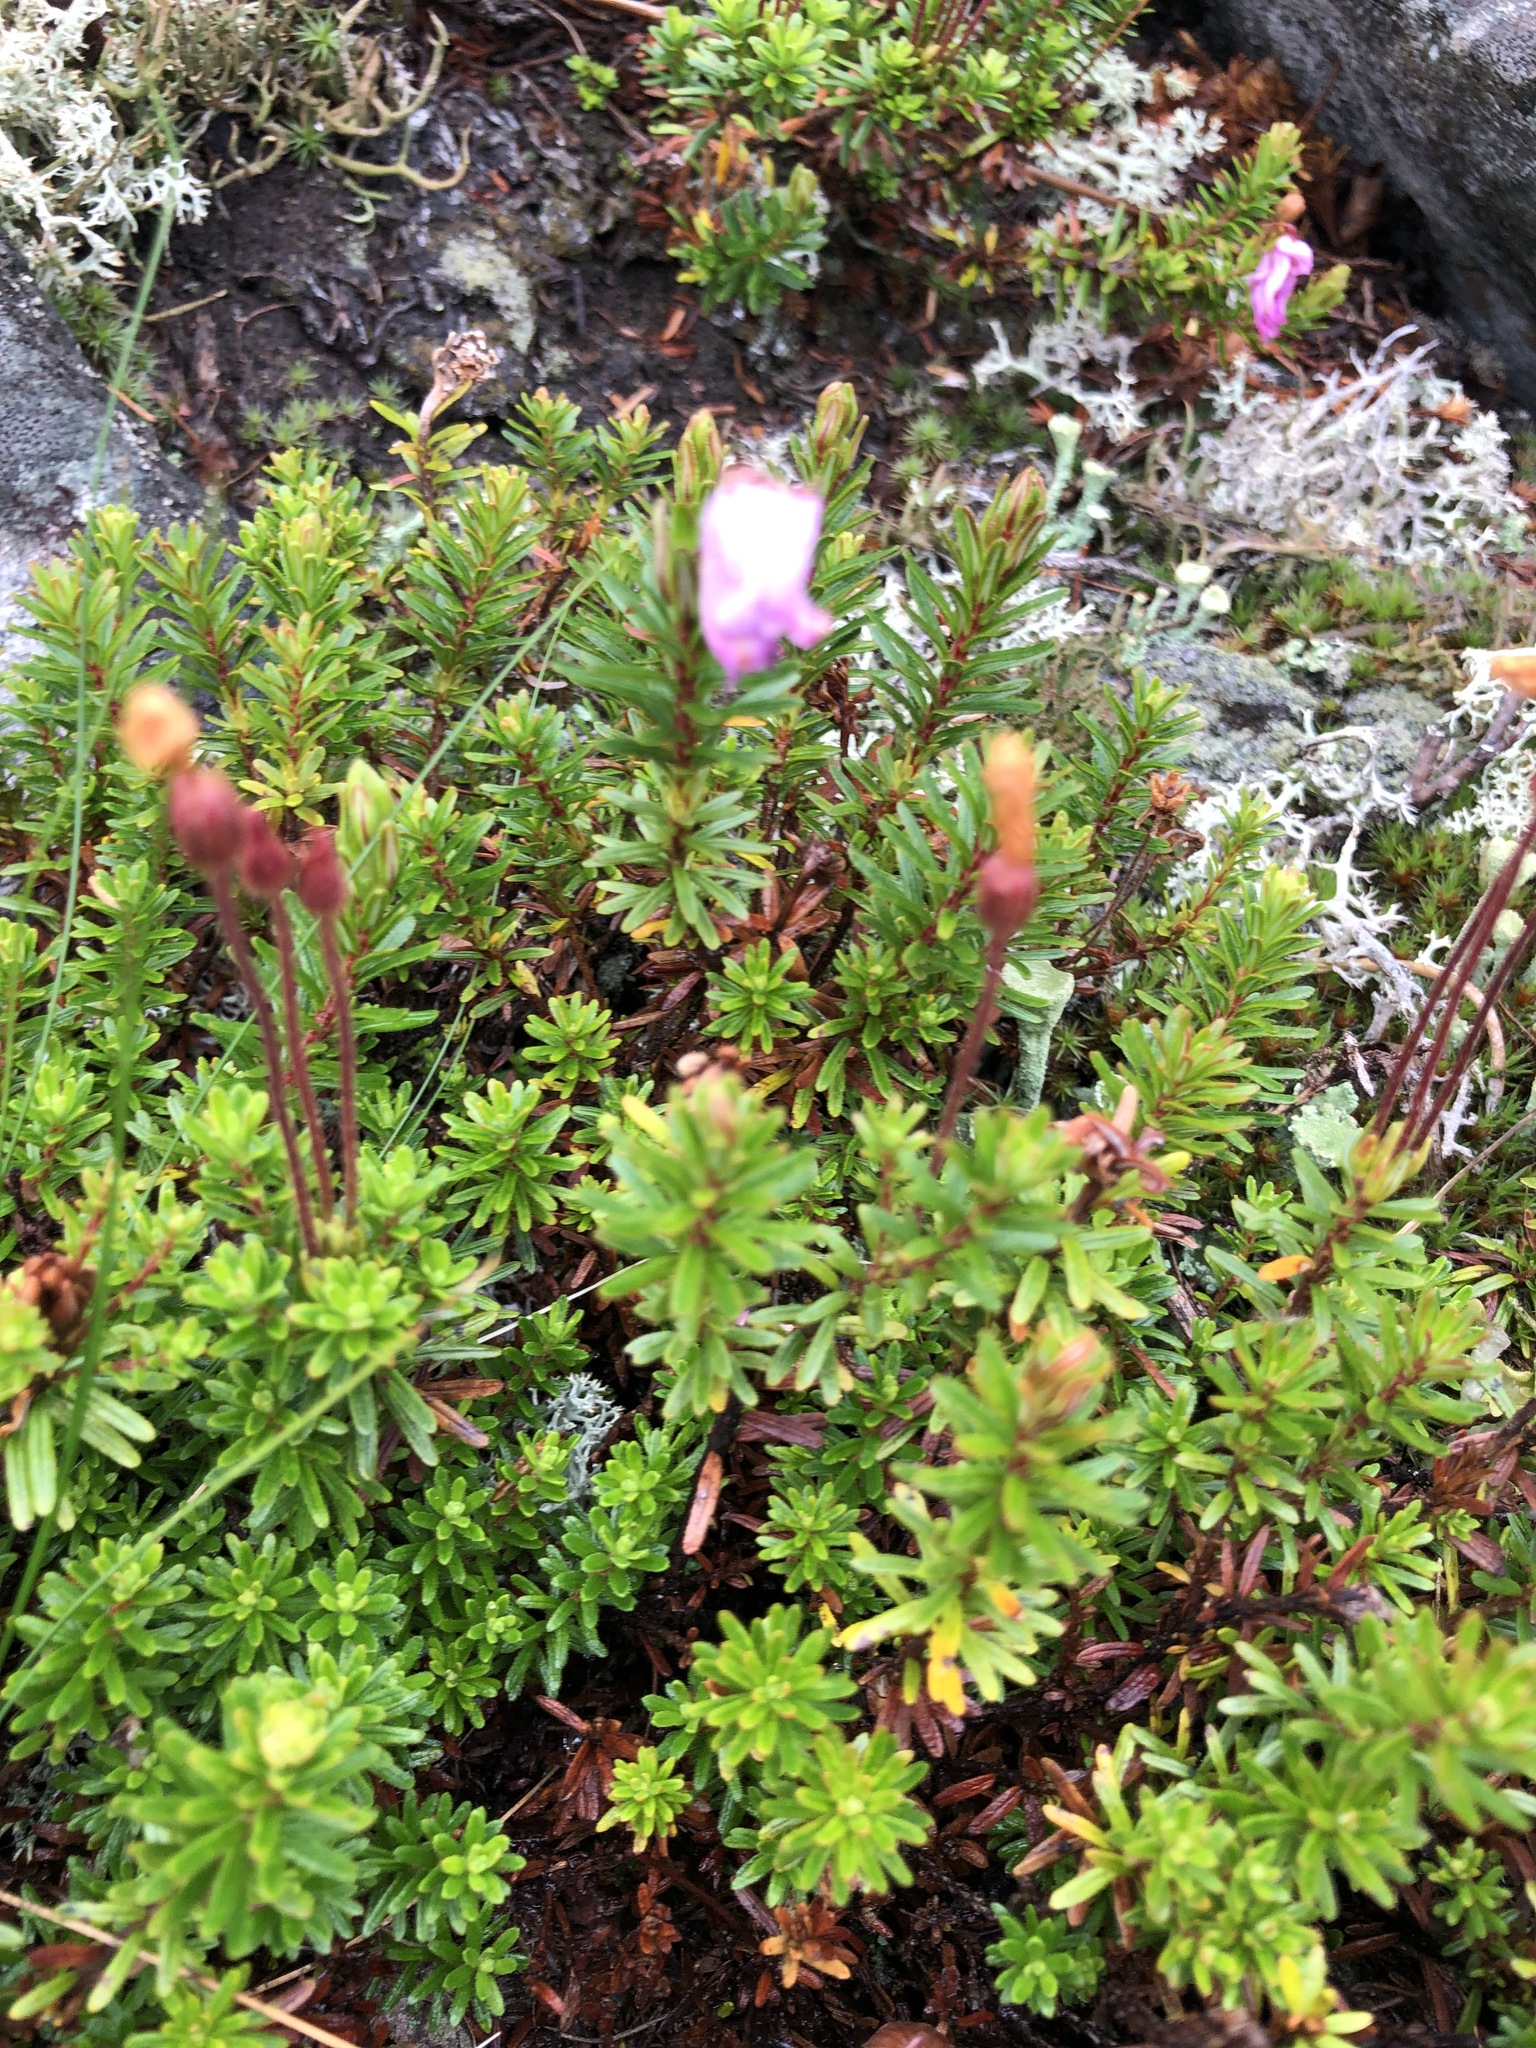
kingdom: Plantae
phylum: Tracheophyta
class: Magnoliopsida
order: Ericales
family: Ericaceae
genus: Phyllodoce
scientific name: Phyllodoce caerulea
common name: Blue heath
